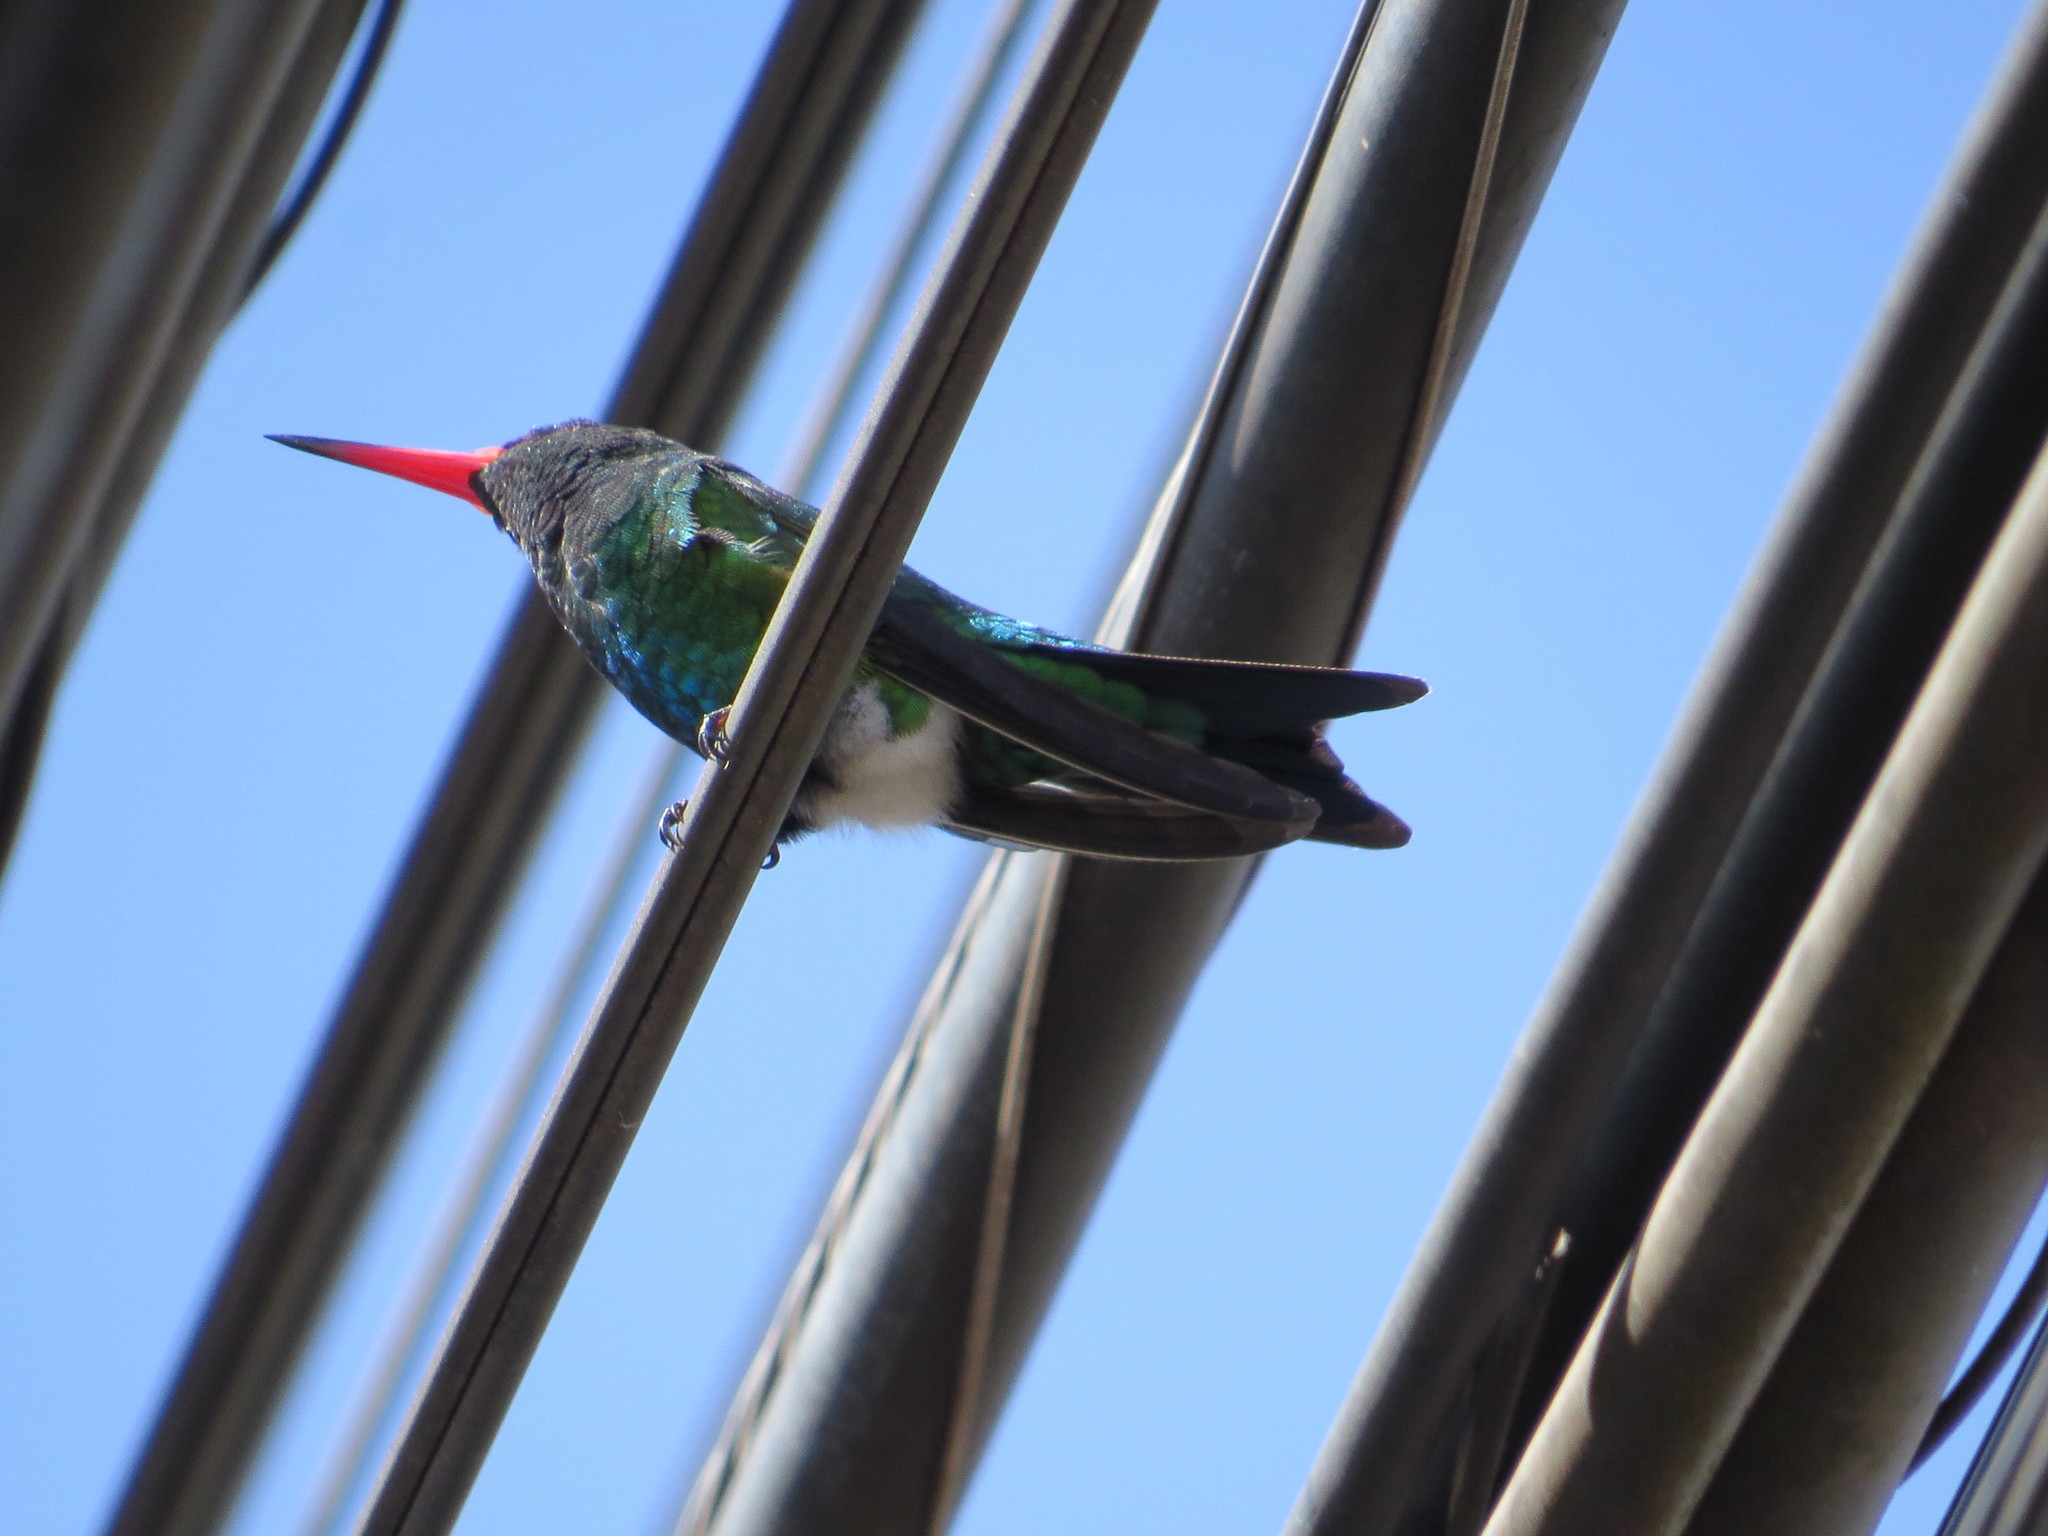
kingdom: Animalia
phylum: Chordata
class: Aves
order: Apodiformes
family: Trochilidae
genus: Chlorostilbon
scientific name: Chlorostilbon lucidus
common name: Glittering-bellied emerald
